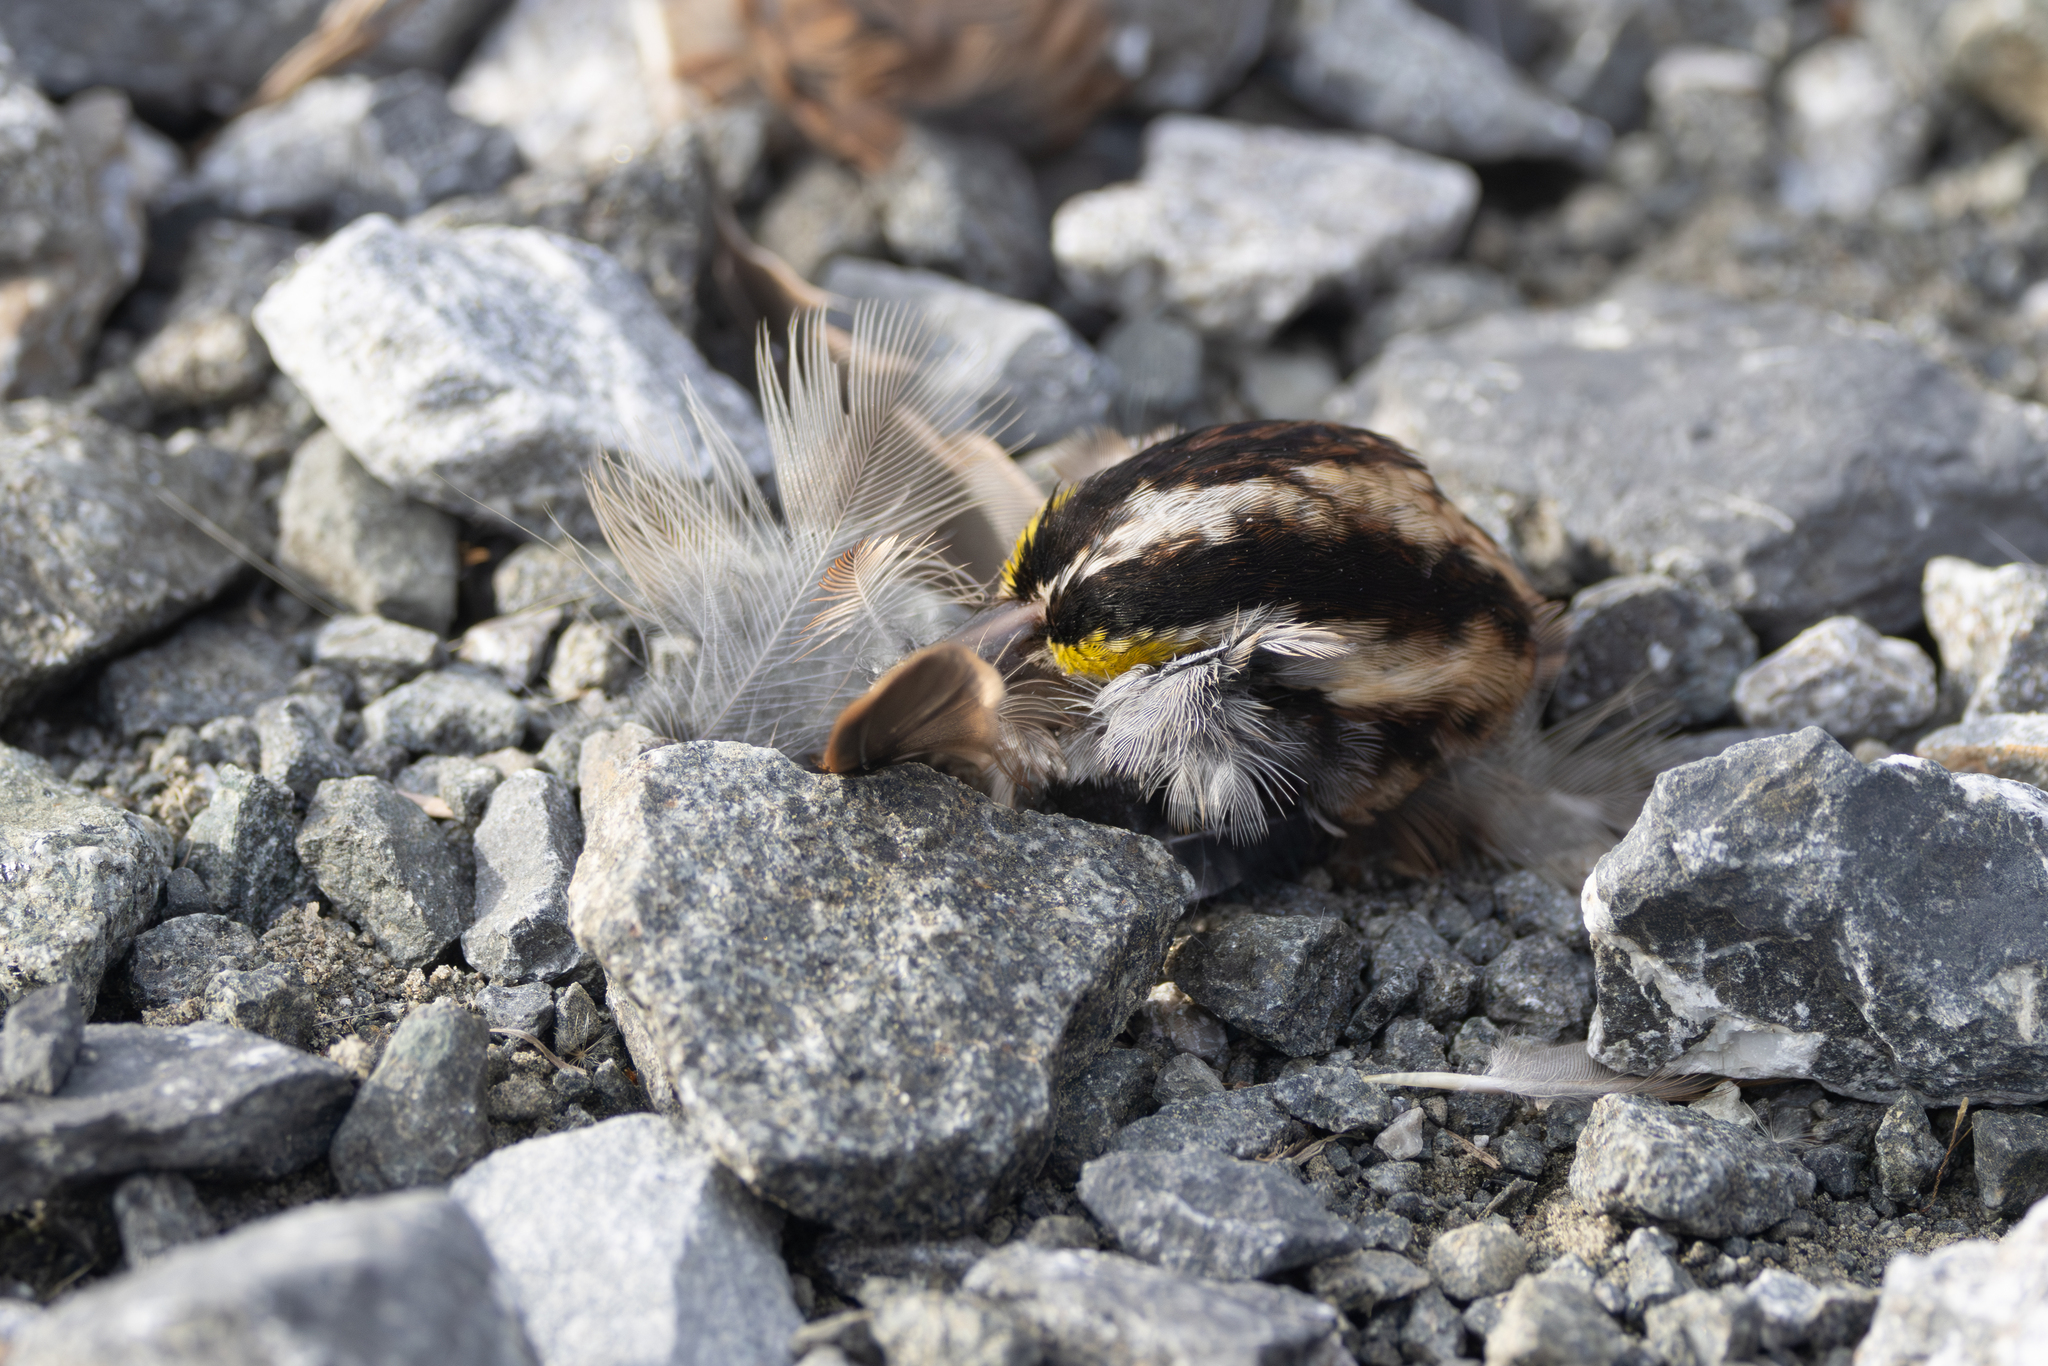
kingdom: Animalia
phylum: Chordata
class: Aves
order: Passeriformes
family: Passerellidae
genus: Zonotrichia
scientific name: Zonotrichia albicollis
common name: White-throated sparrow
